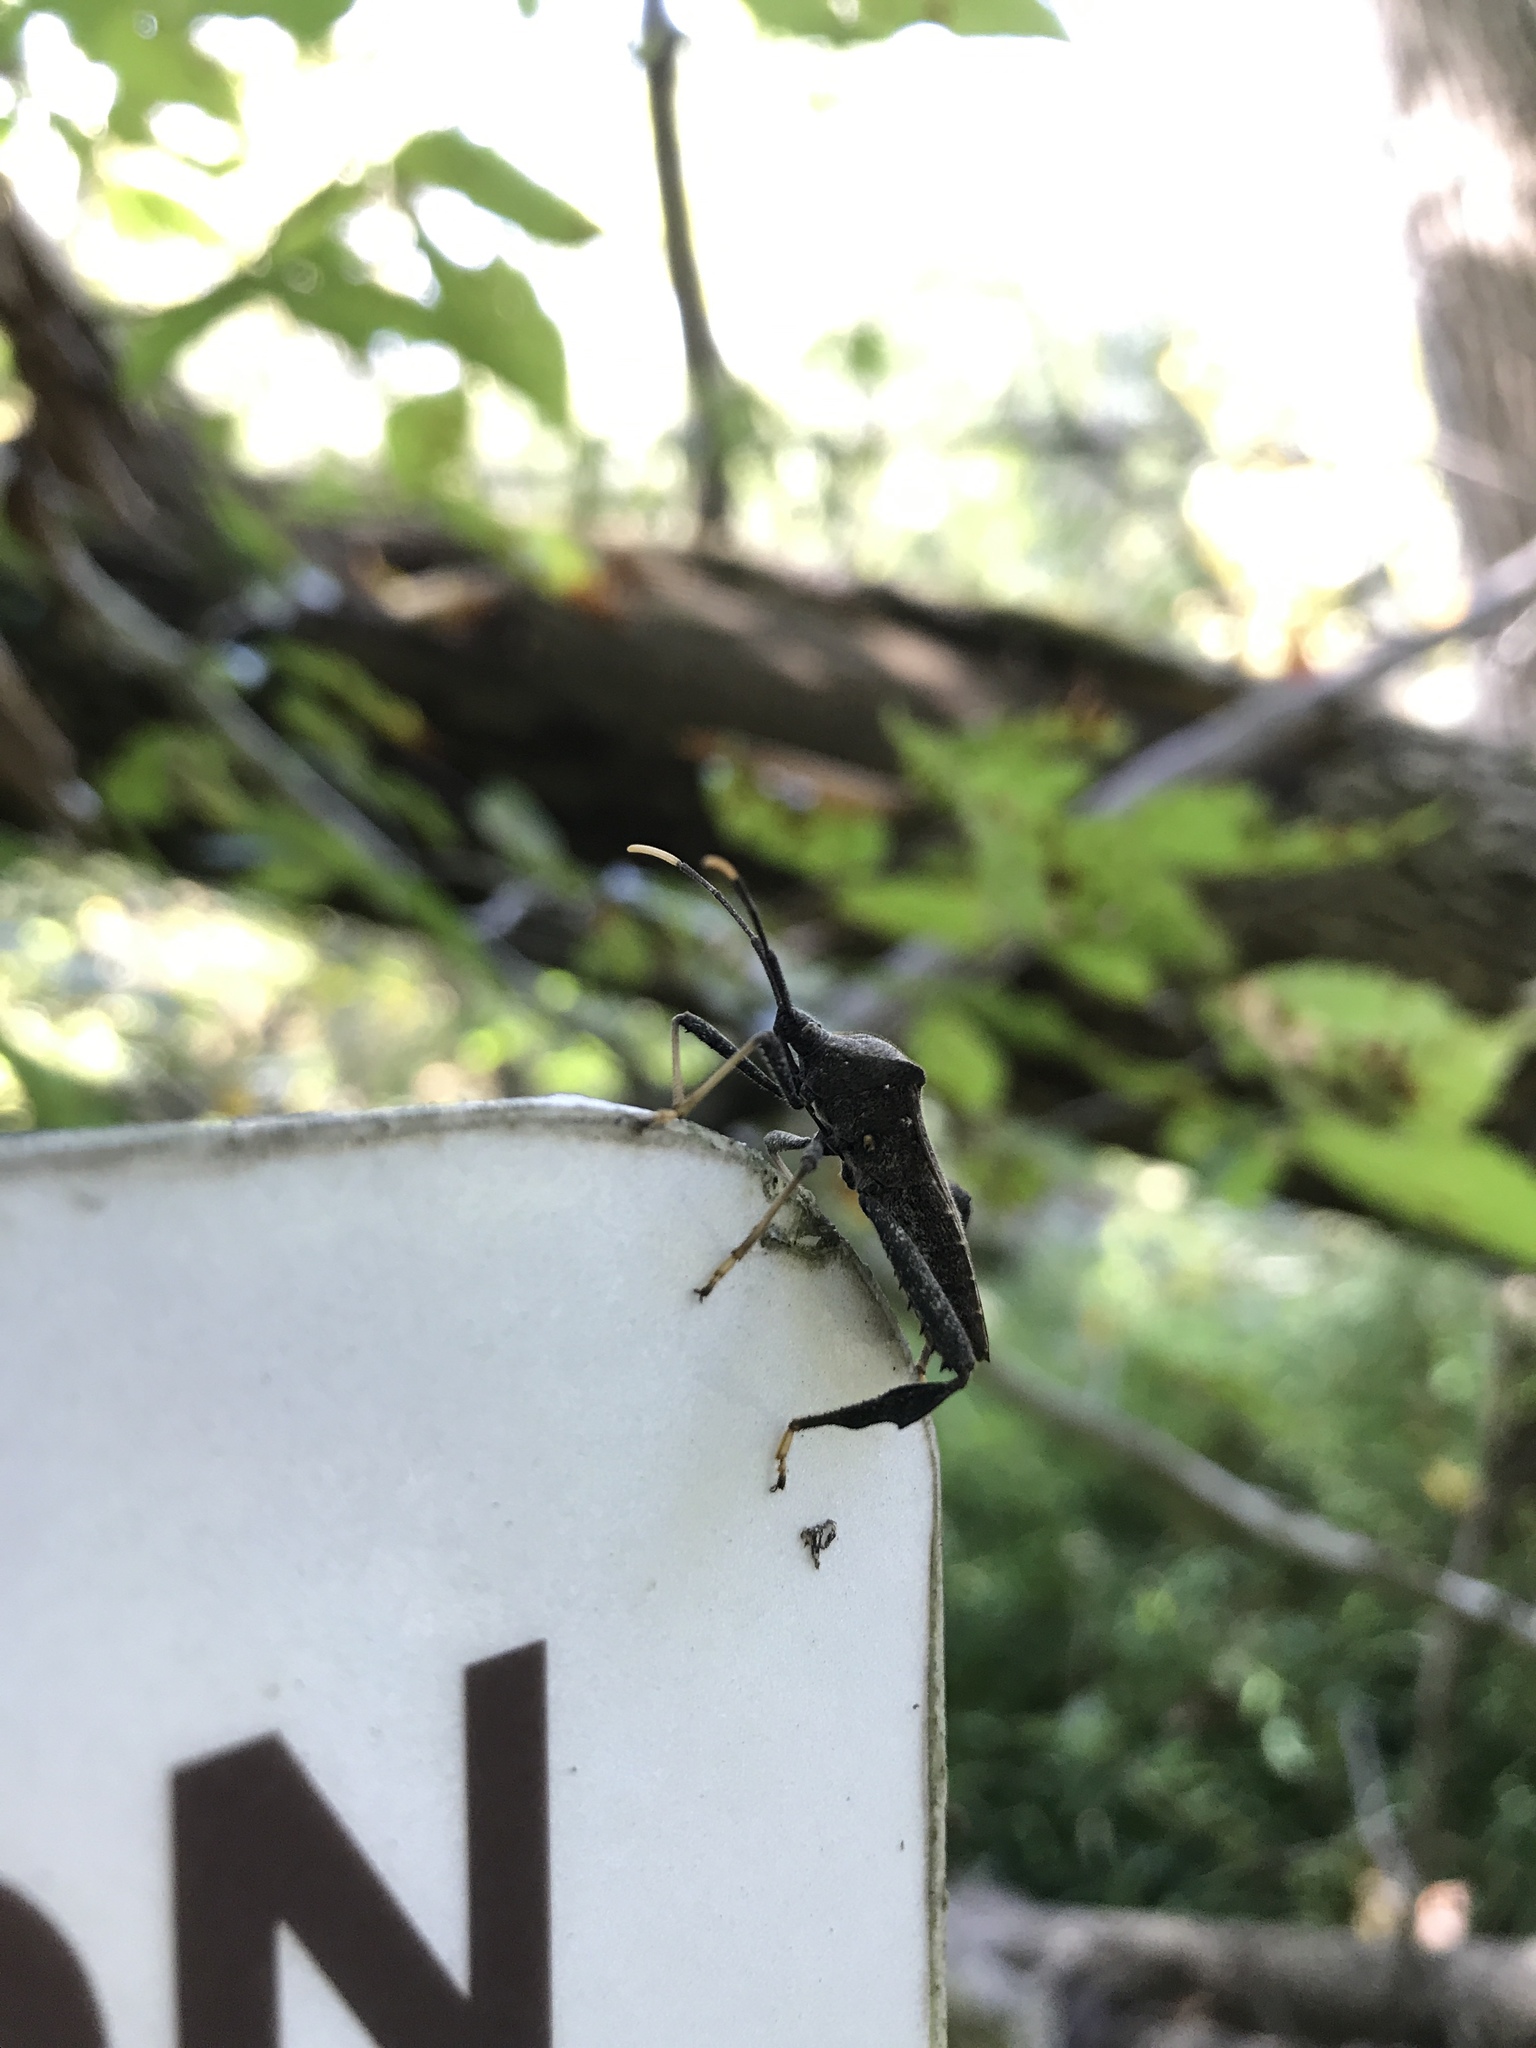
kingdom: Animalia
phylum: Arthropoda
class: Insecta
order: Hemiptera
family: Coreidae
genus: Acanthocephala
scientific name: Acanthocephala terminalis
